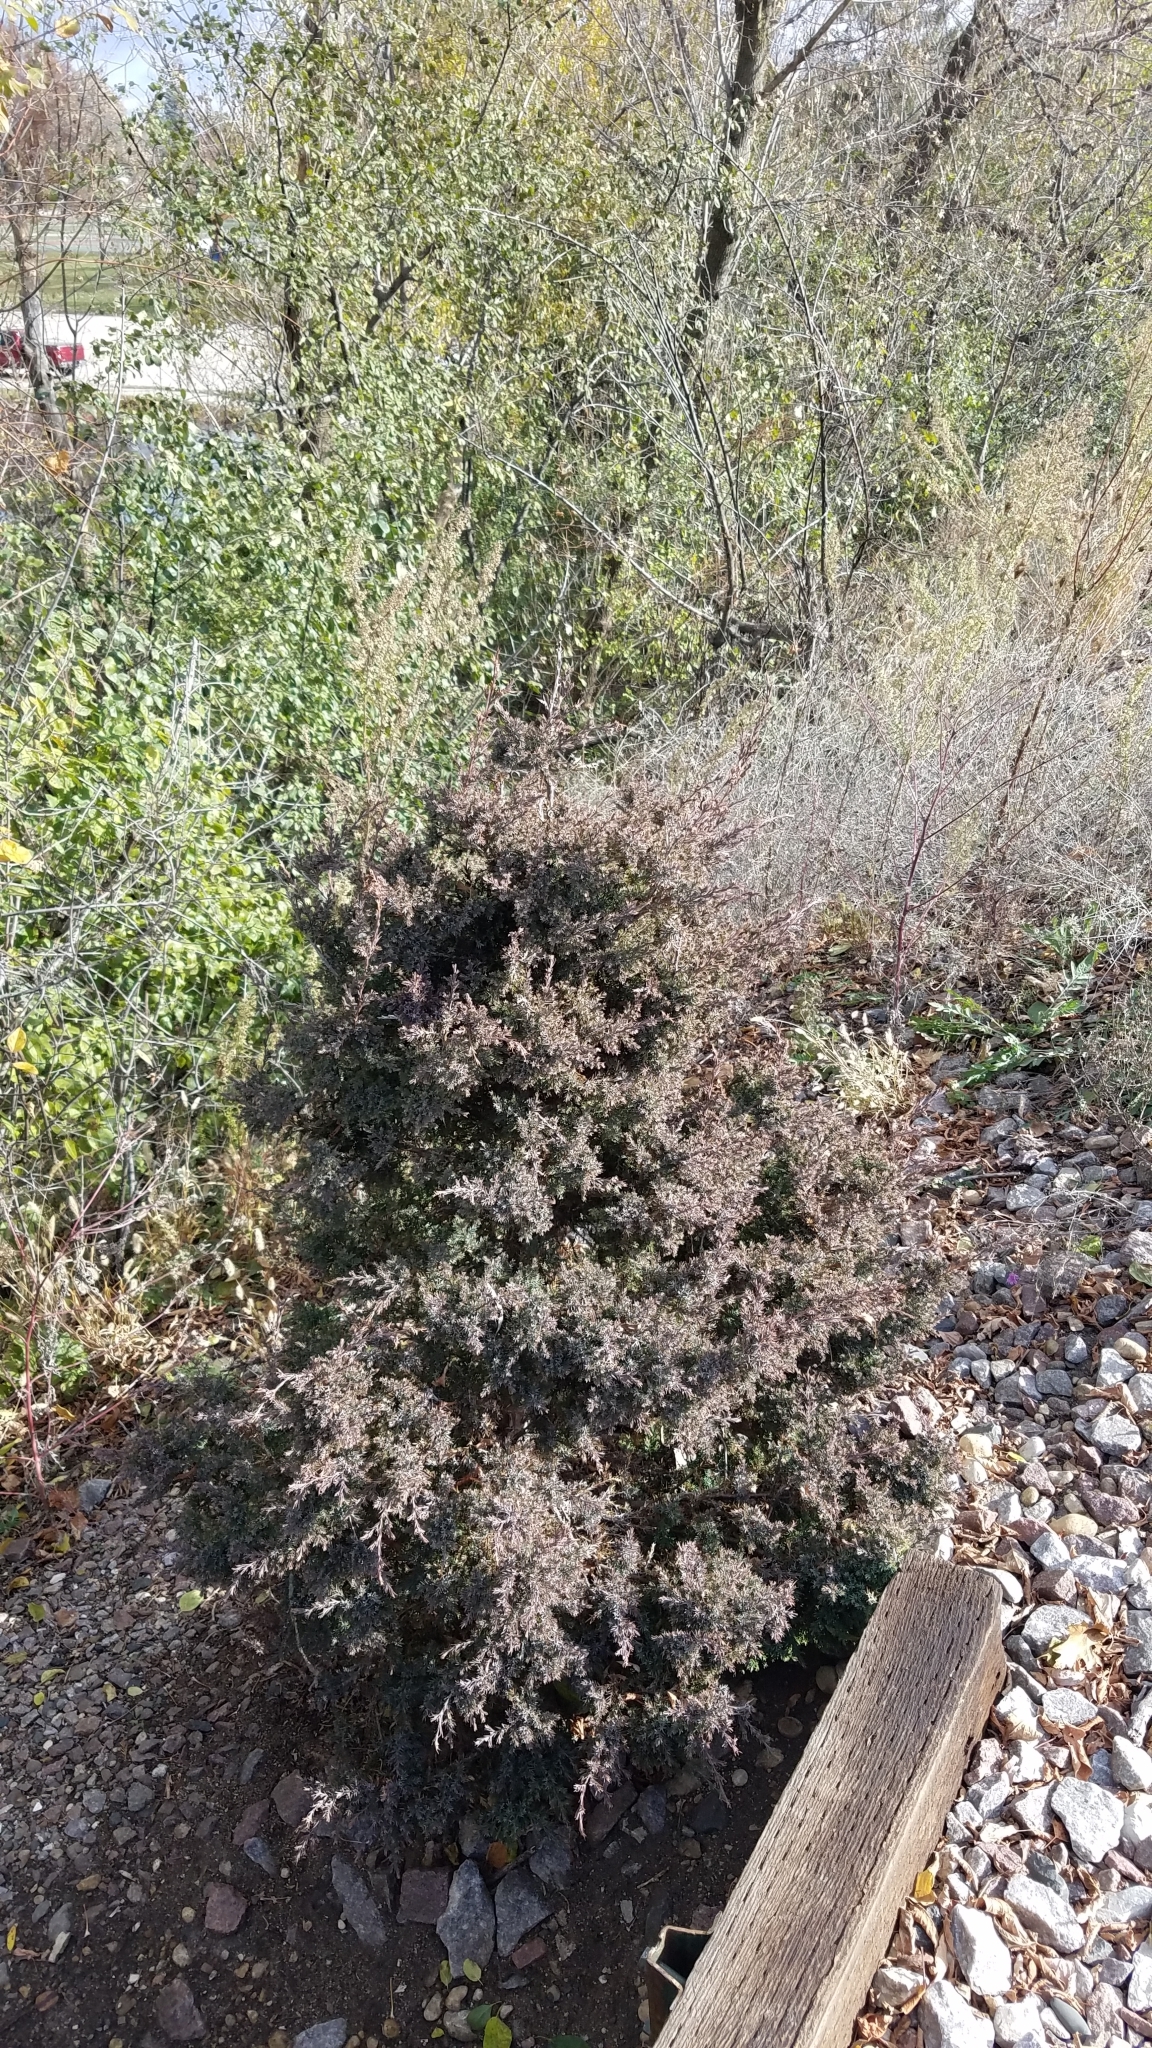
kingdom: Plantae
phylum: Tracheophyta
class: Pinopsida
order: Pinales
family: Cupressaceae
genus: Juniperus
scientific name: Juniperus virginiana
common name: Red juniper
